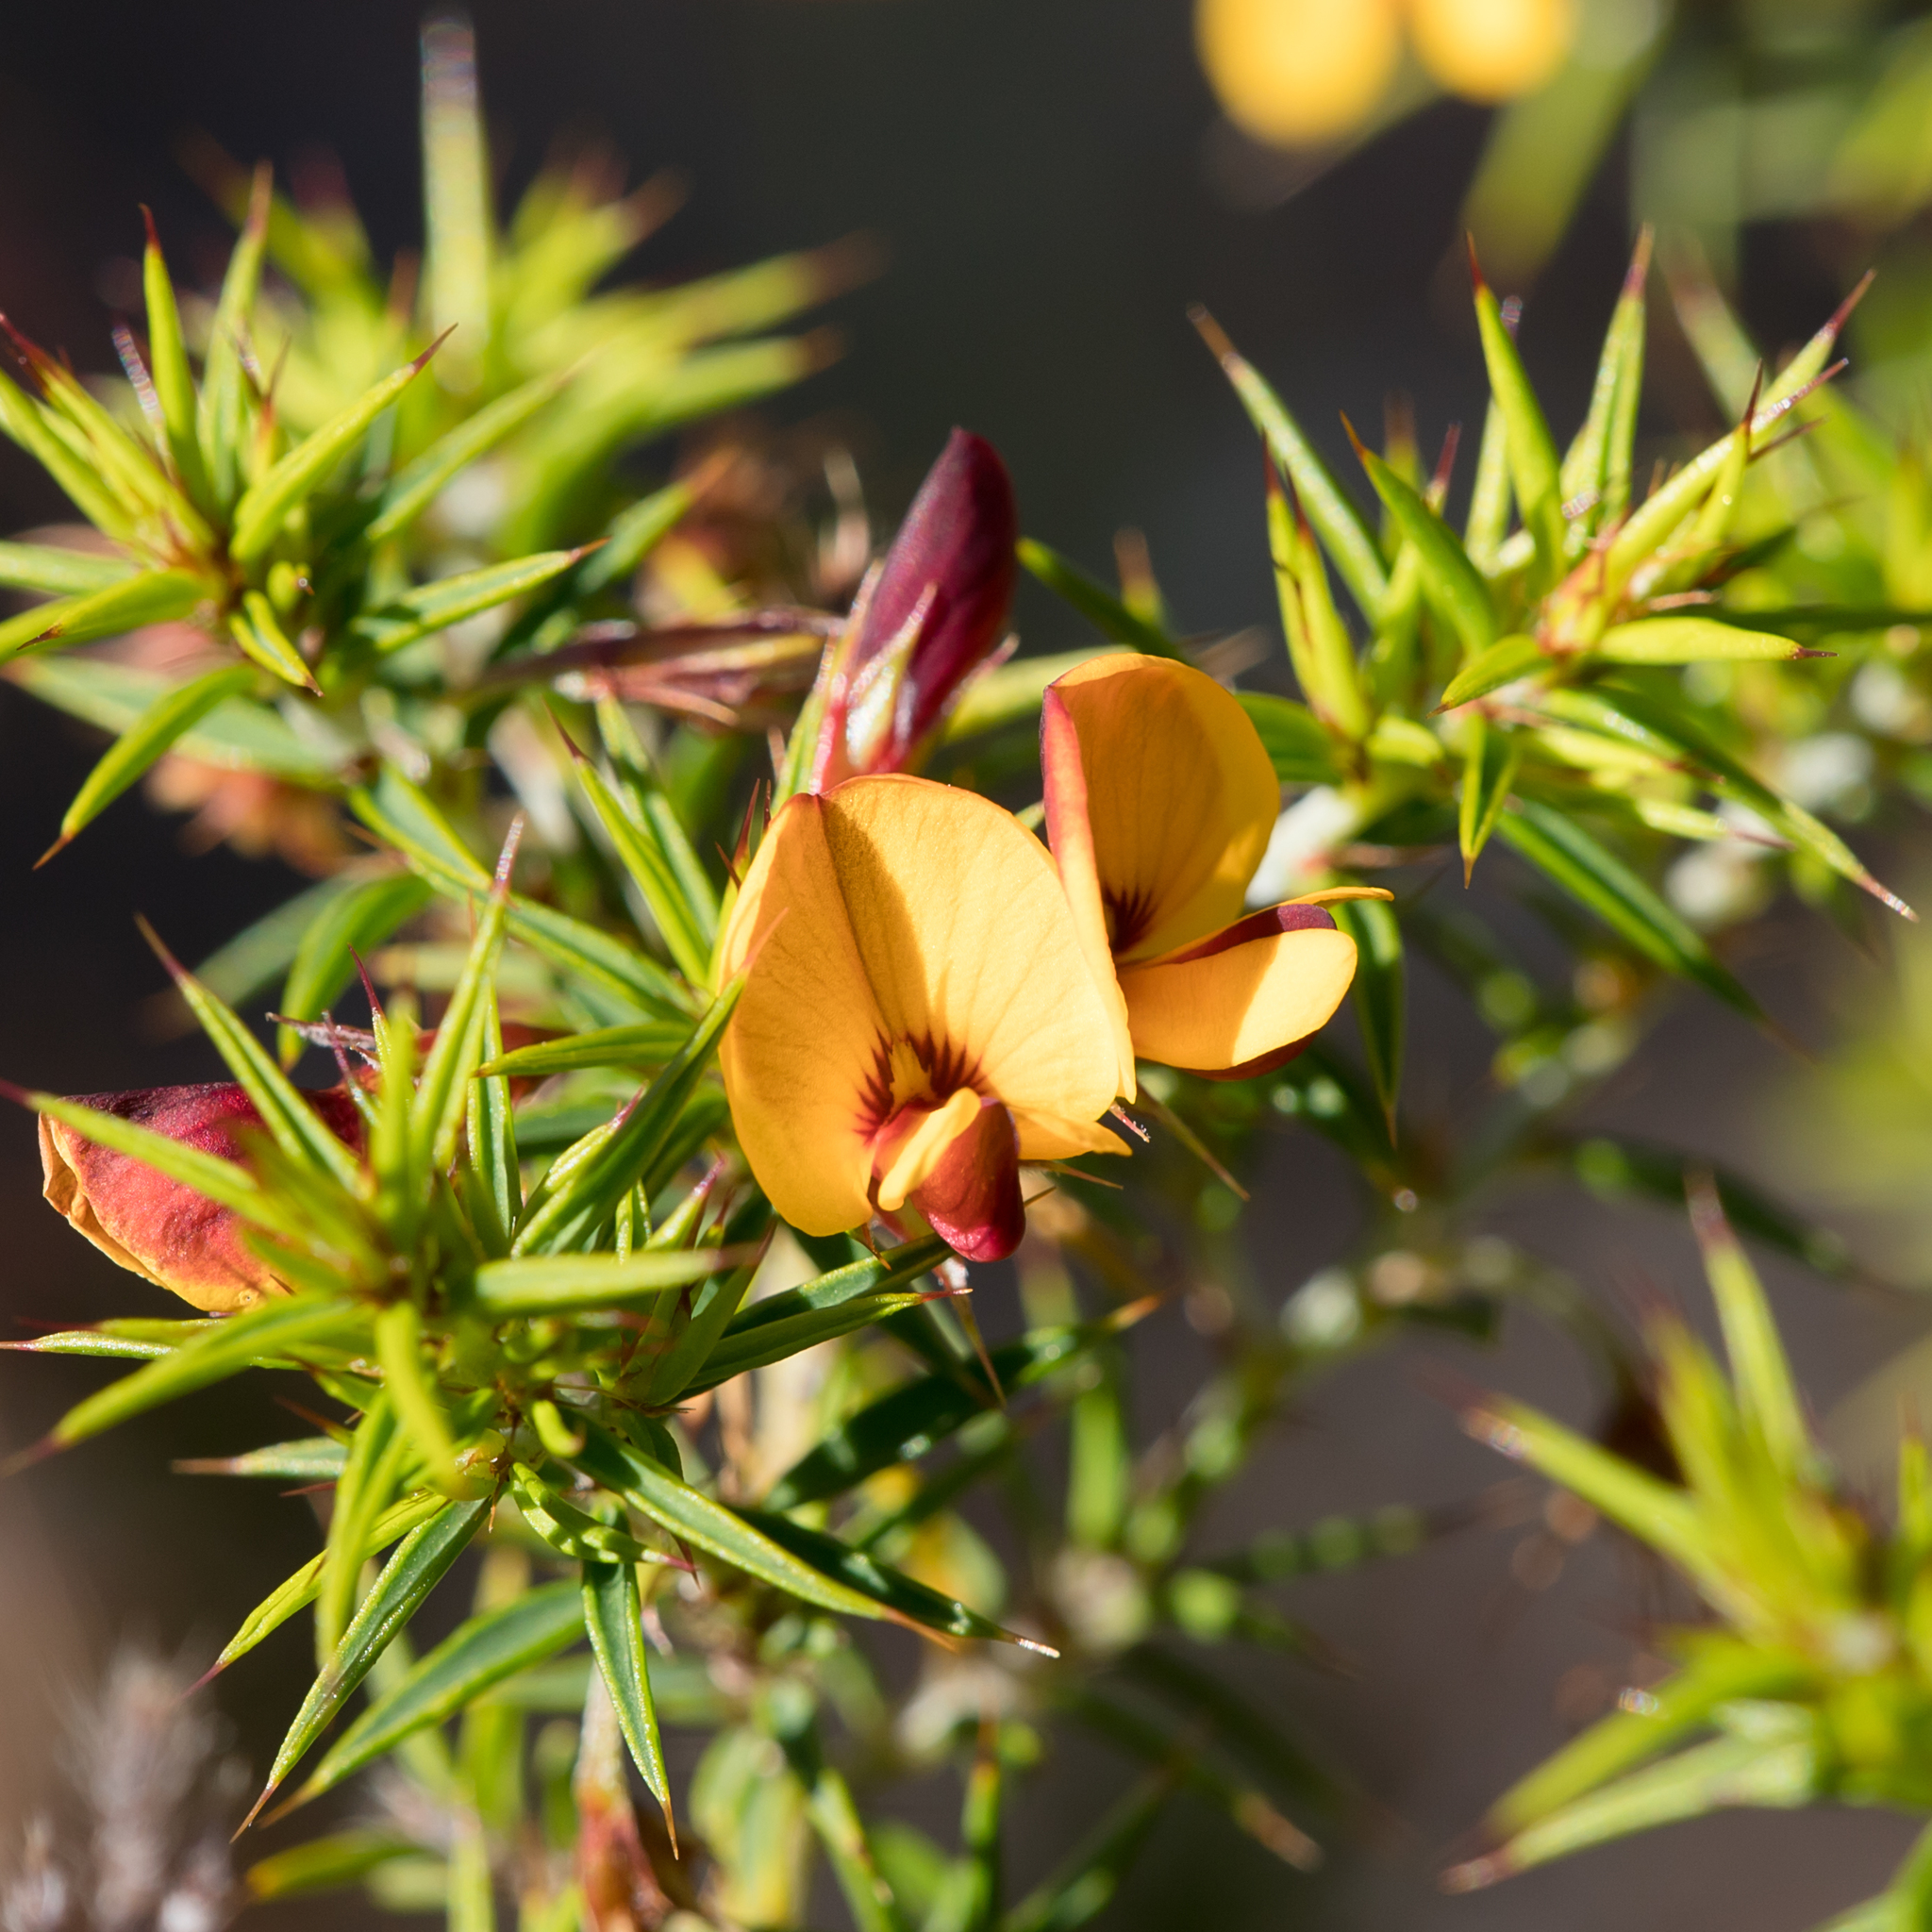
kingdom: Plantae
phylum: Tracheophyta
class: Magnoliopsida
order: Fabales
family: Fabaceae
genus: Pultenaea
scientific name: Pultenaea acerosa
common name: Bristly bush-pea
